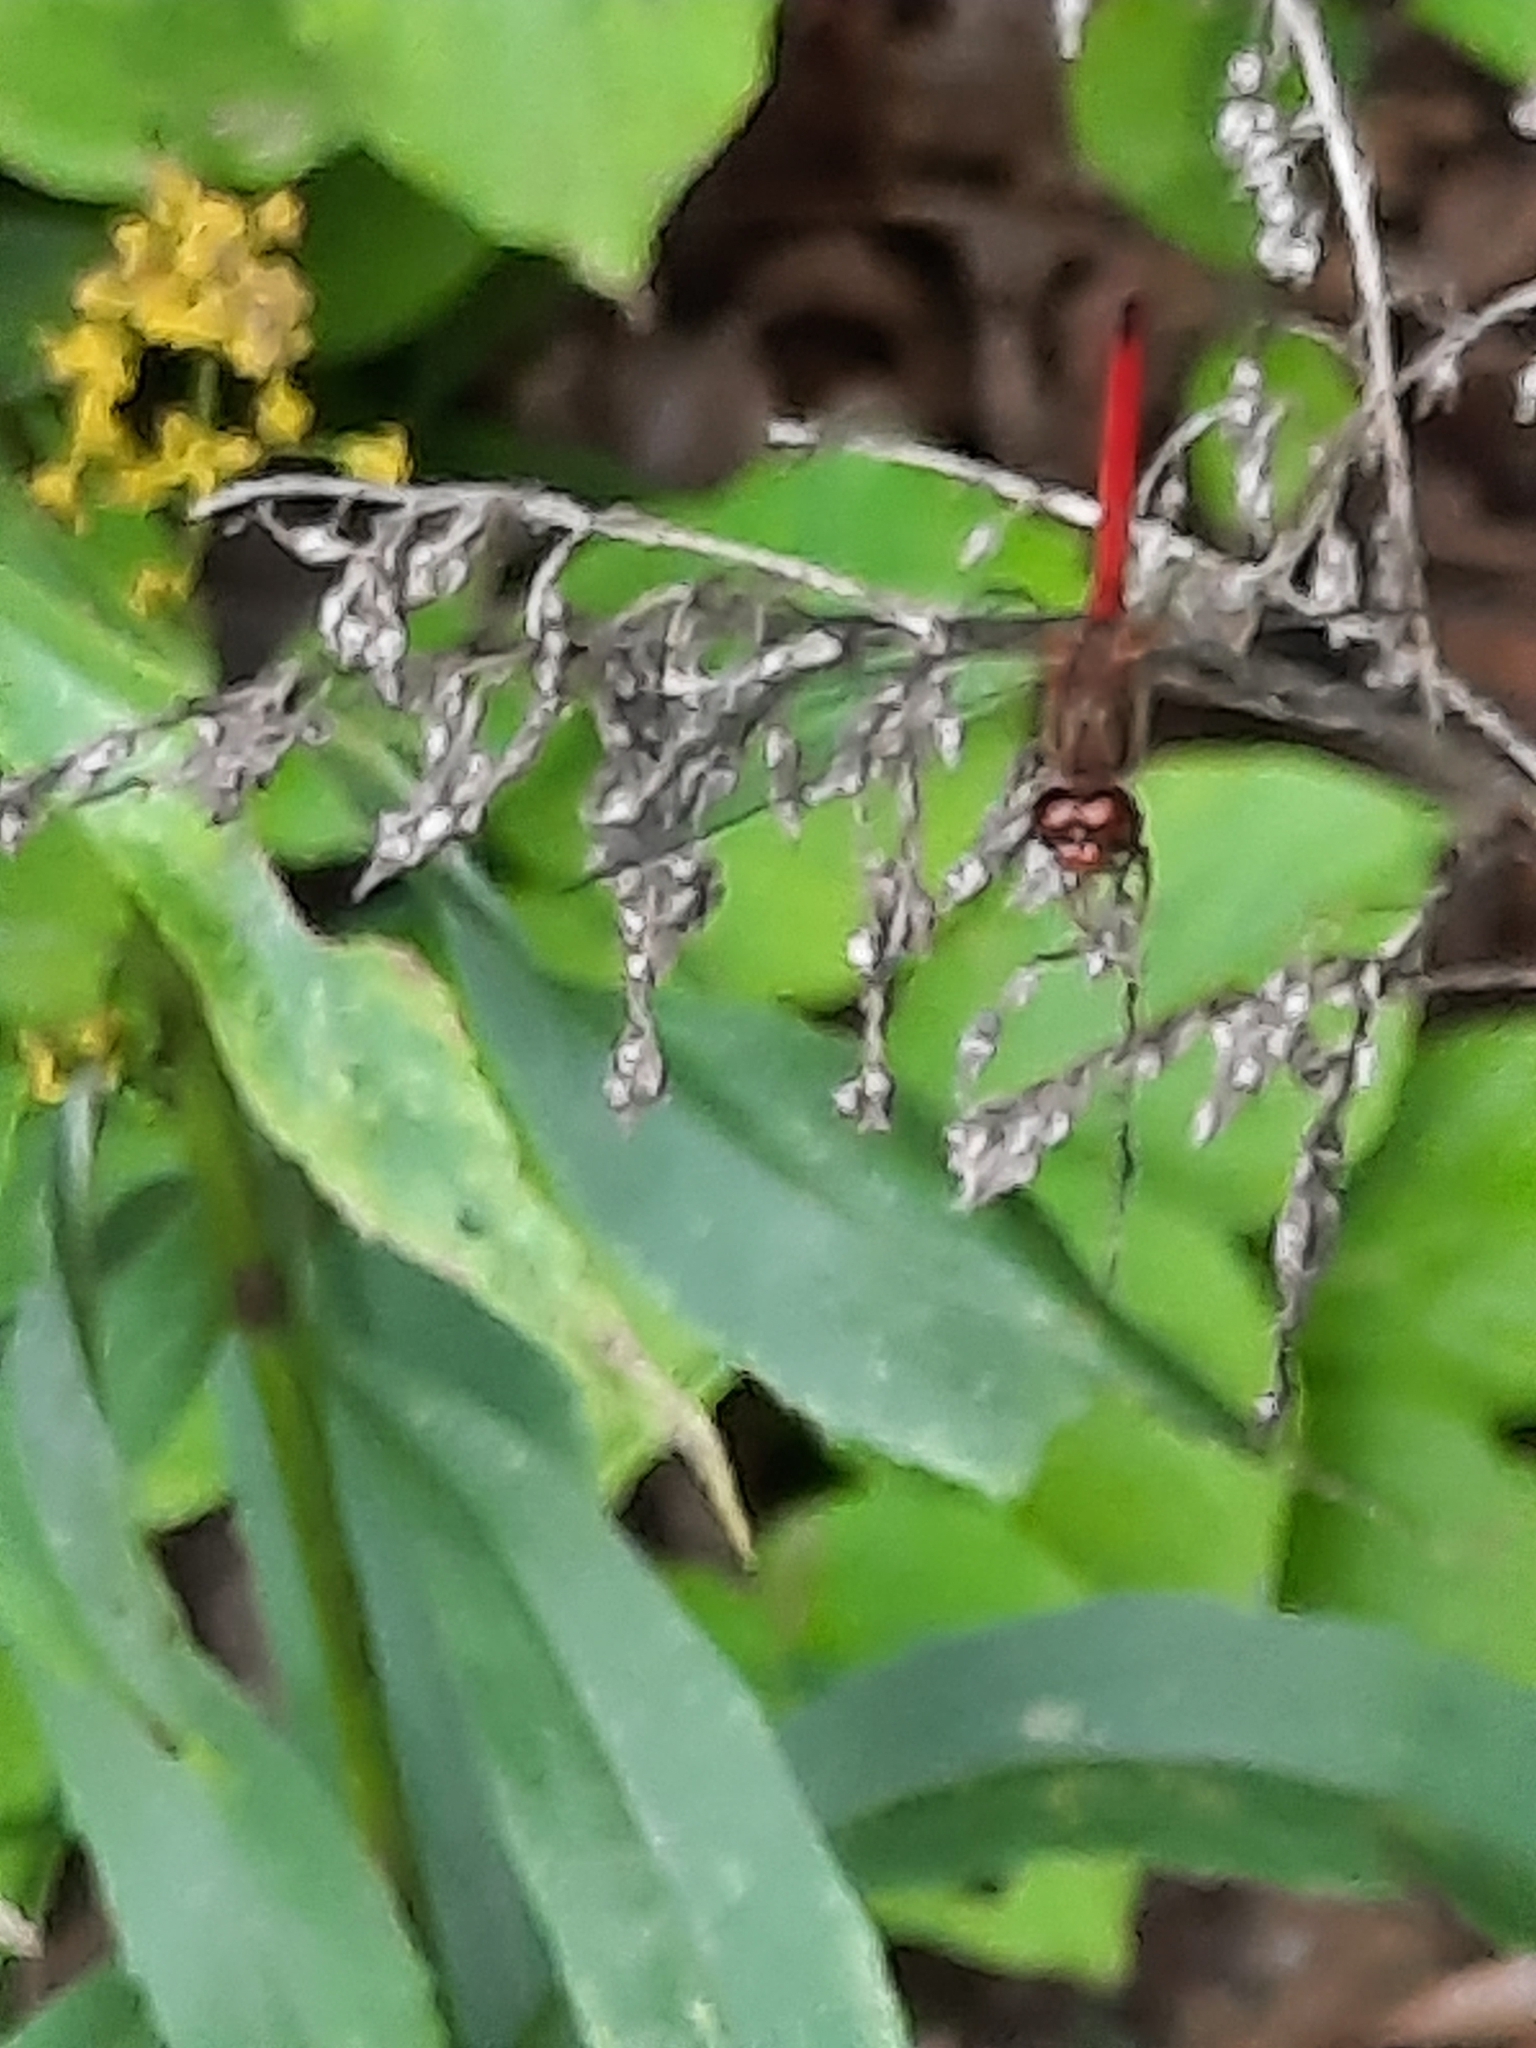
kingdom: Animalia
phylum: Arthropoda
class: Insecta
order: Odonata
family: Libellulidae
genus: Sympetrum
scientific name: Sympetrum vicinum
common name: Autumn meadowhawk
